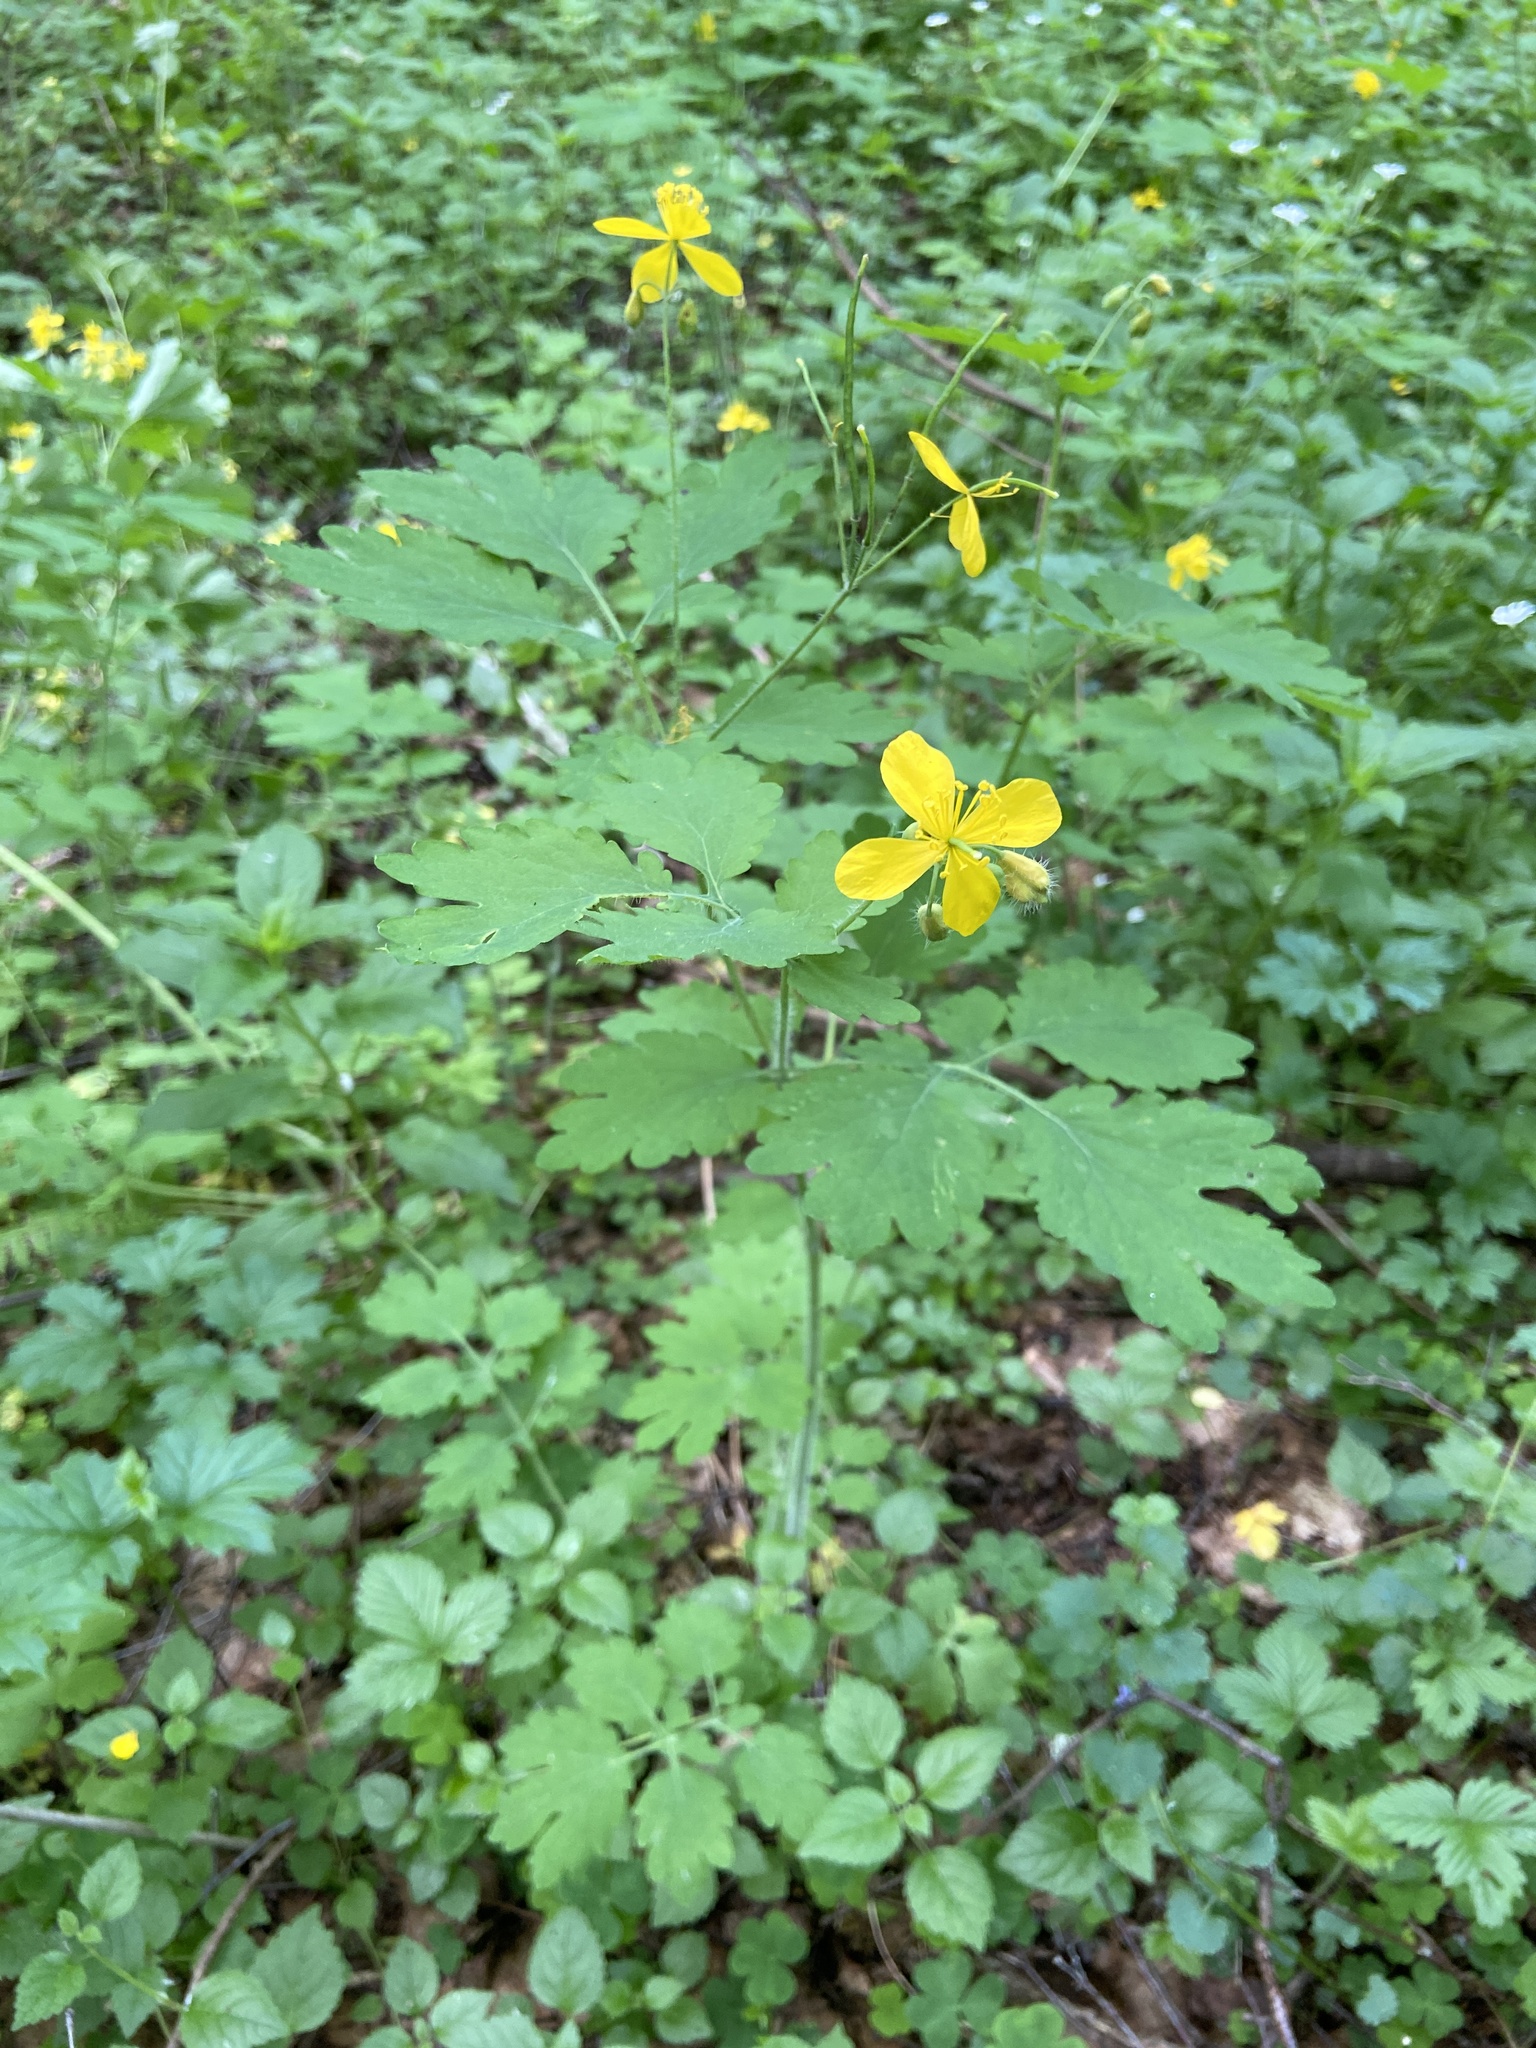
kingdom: Plantae
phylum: Tracheophyta
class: Magnoliopsida
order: Ranunculales
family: Papaveraceae
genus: Chelidonium
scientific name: Chelidonium majus
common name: Greater celandine
